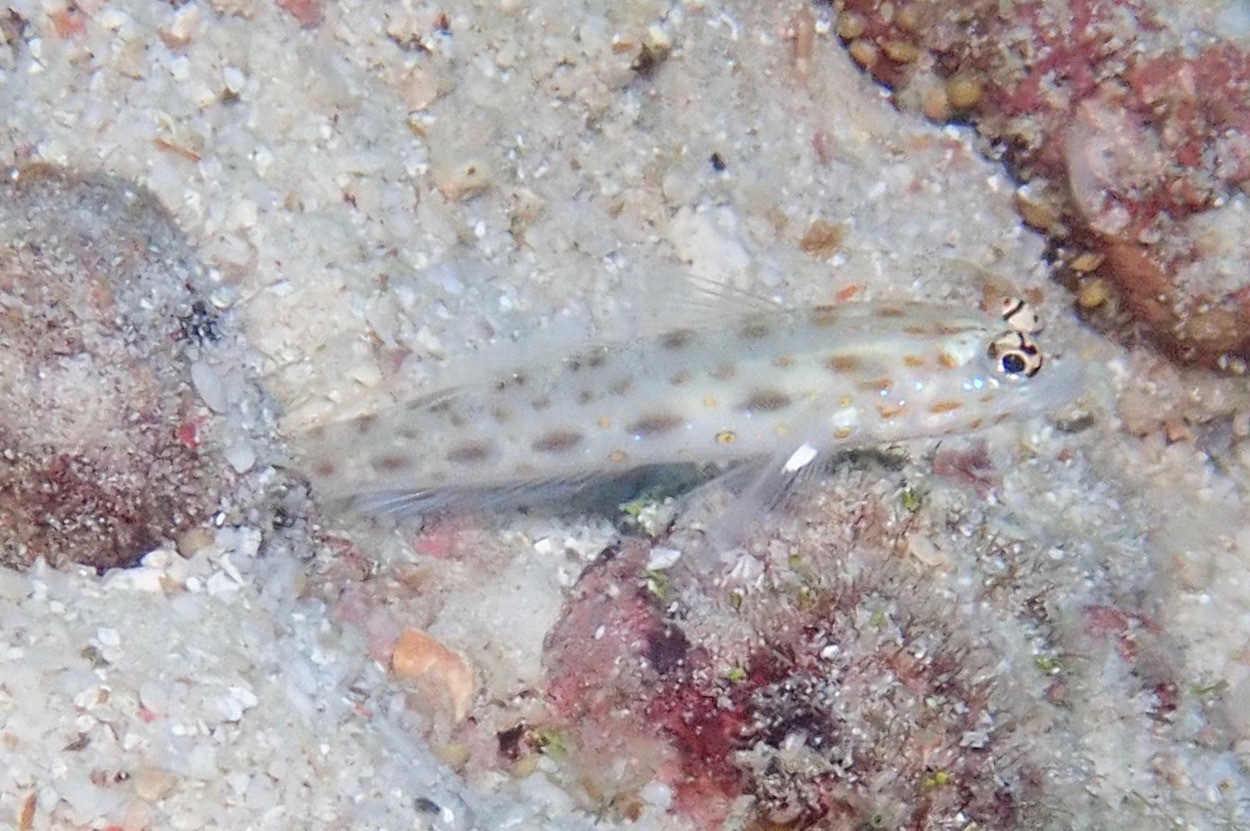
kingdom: Animalia
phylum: Chordata
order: Perciformes
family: Gobiidae
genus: Ctenogobiops
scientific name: Ctenogobiops pomastictus
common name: Spotfin shrimp goby
